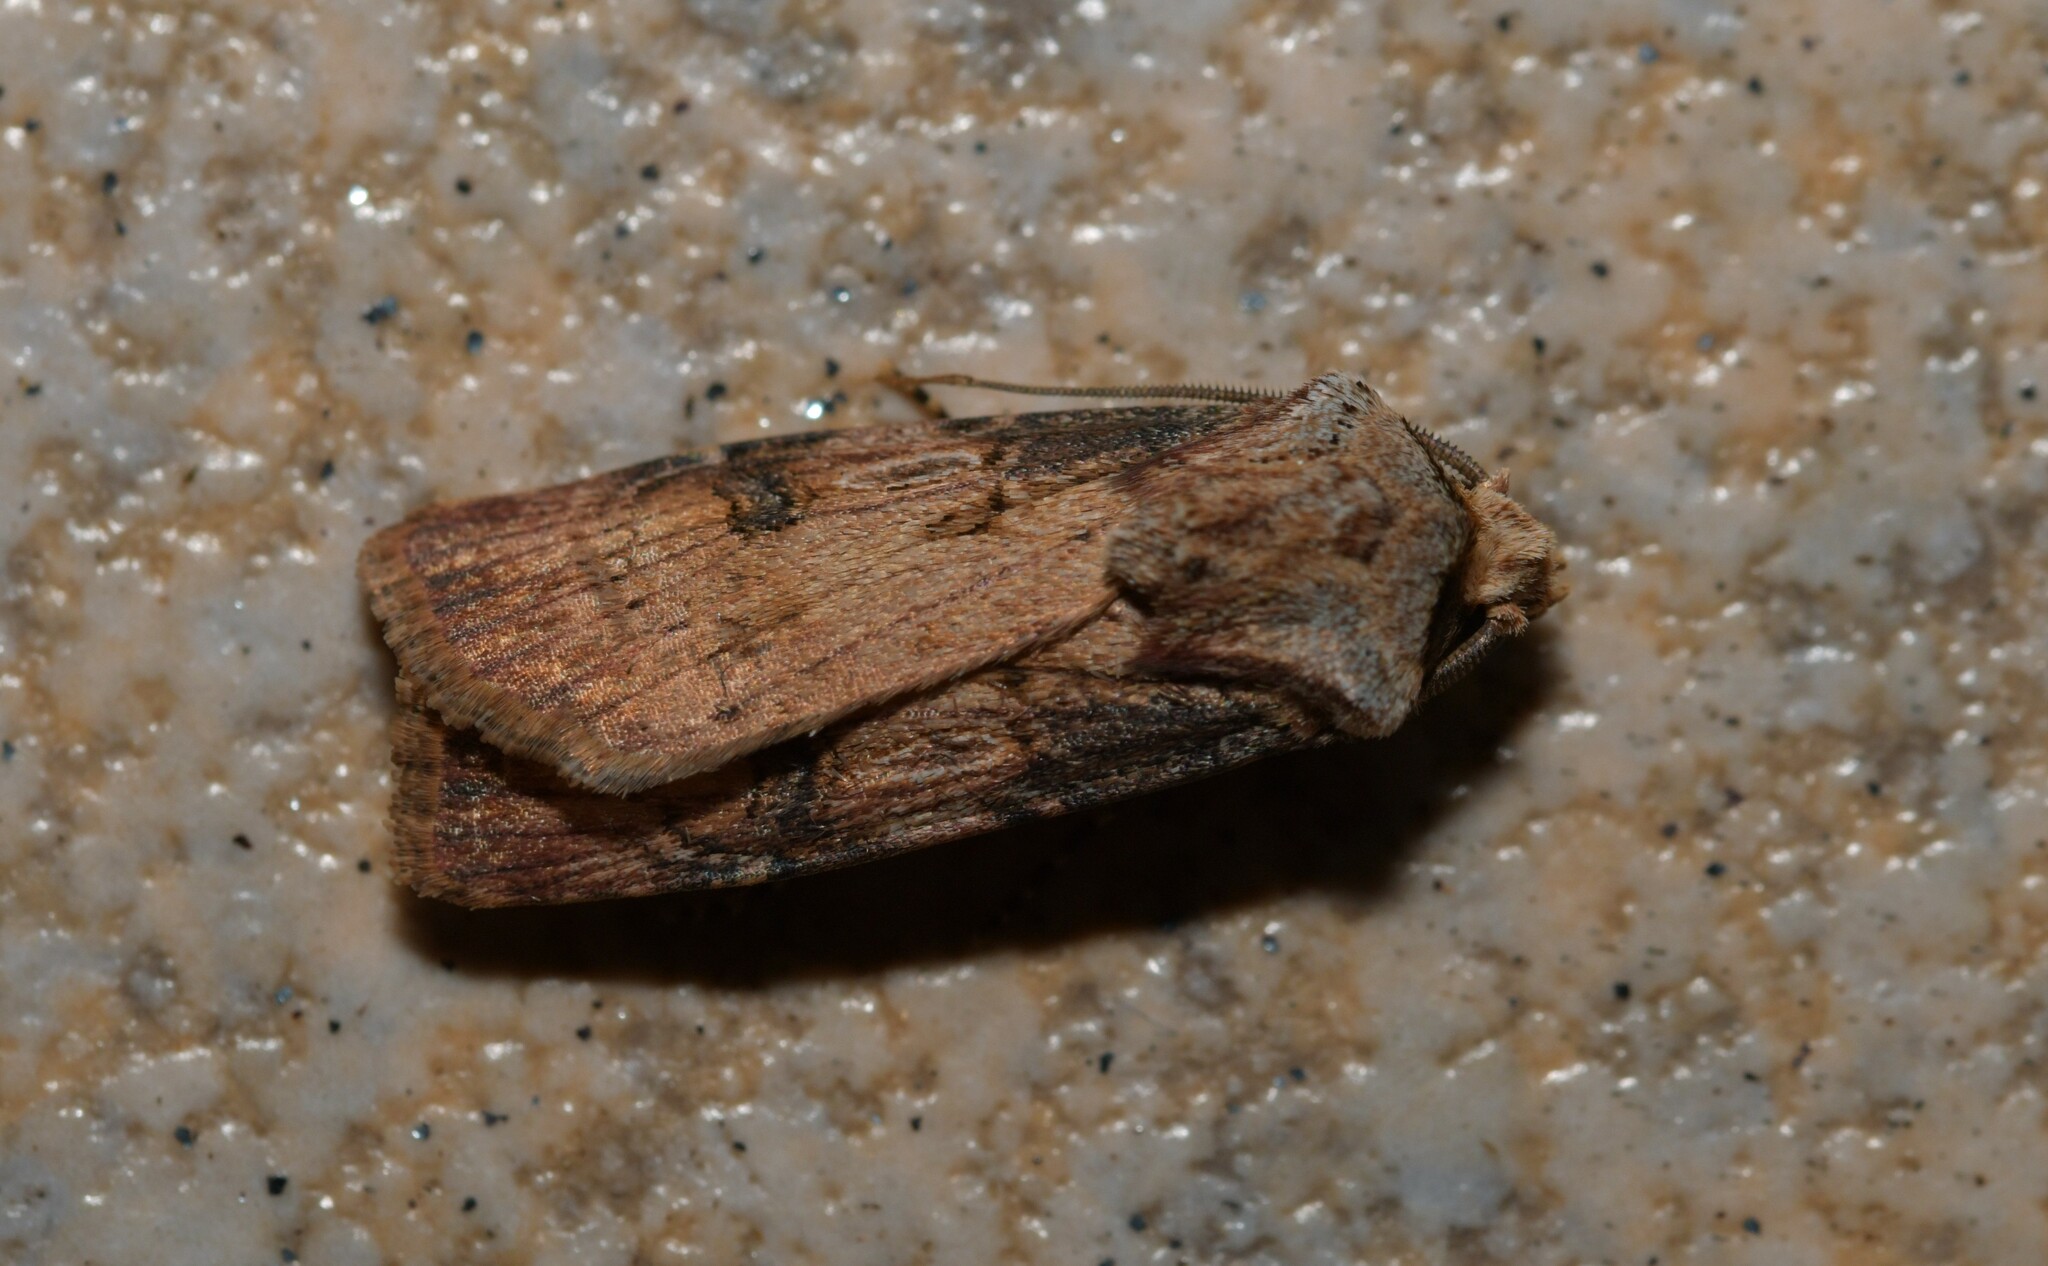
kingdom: Animalia
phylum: Arthropoda
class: Insecta
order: Lepidoptera
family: Noctuidae
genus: Agrotis
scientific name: Agrotis puta
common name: Shuttle-shaped dart
